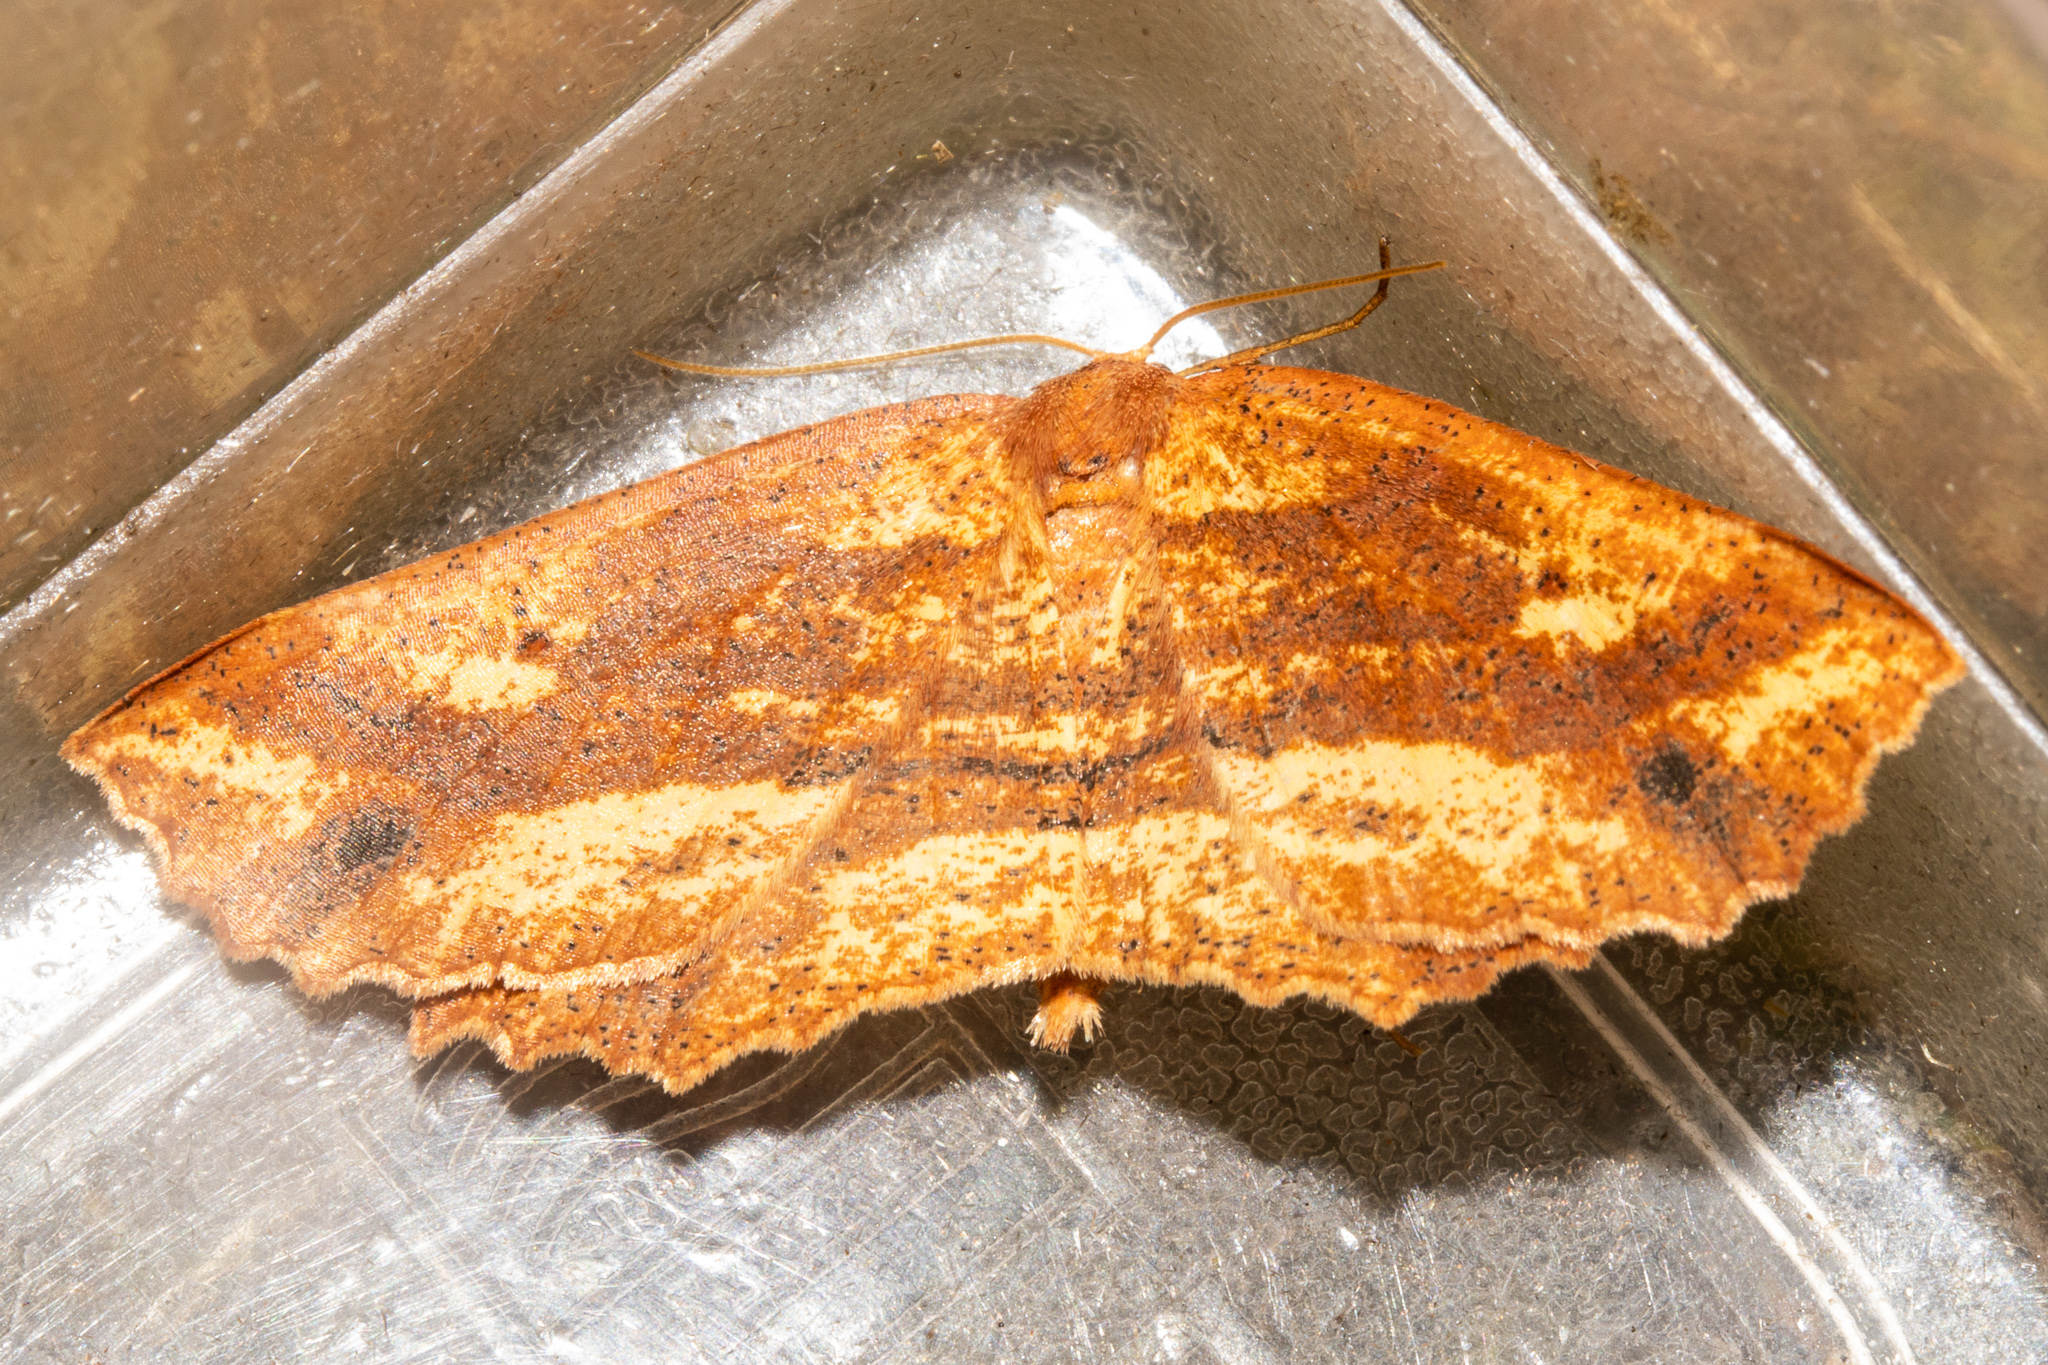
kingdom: Animalia
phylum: Arthropoda
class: Insecta
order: Lepidoptera
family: Geometridae
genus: Xyridacma
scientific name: Xyridacma veronicae
